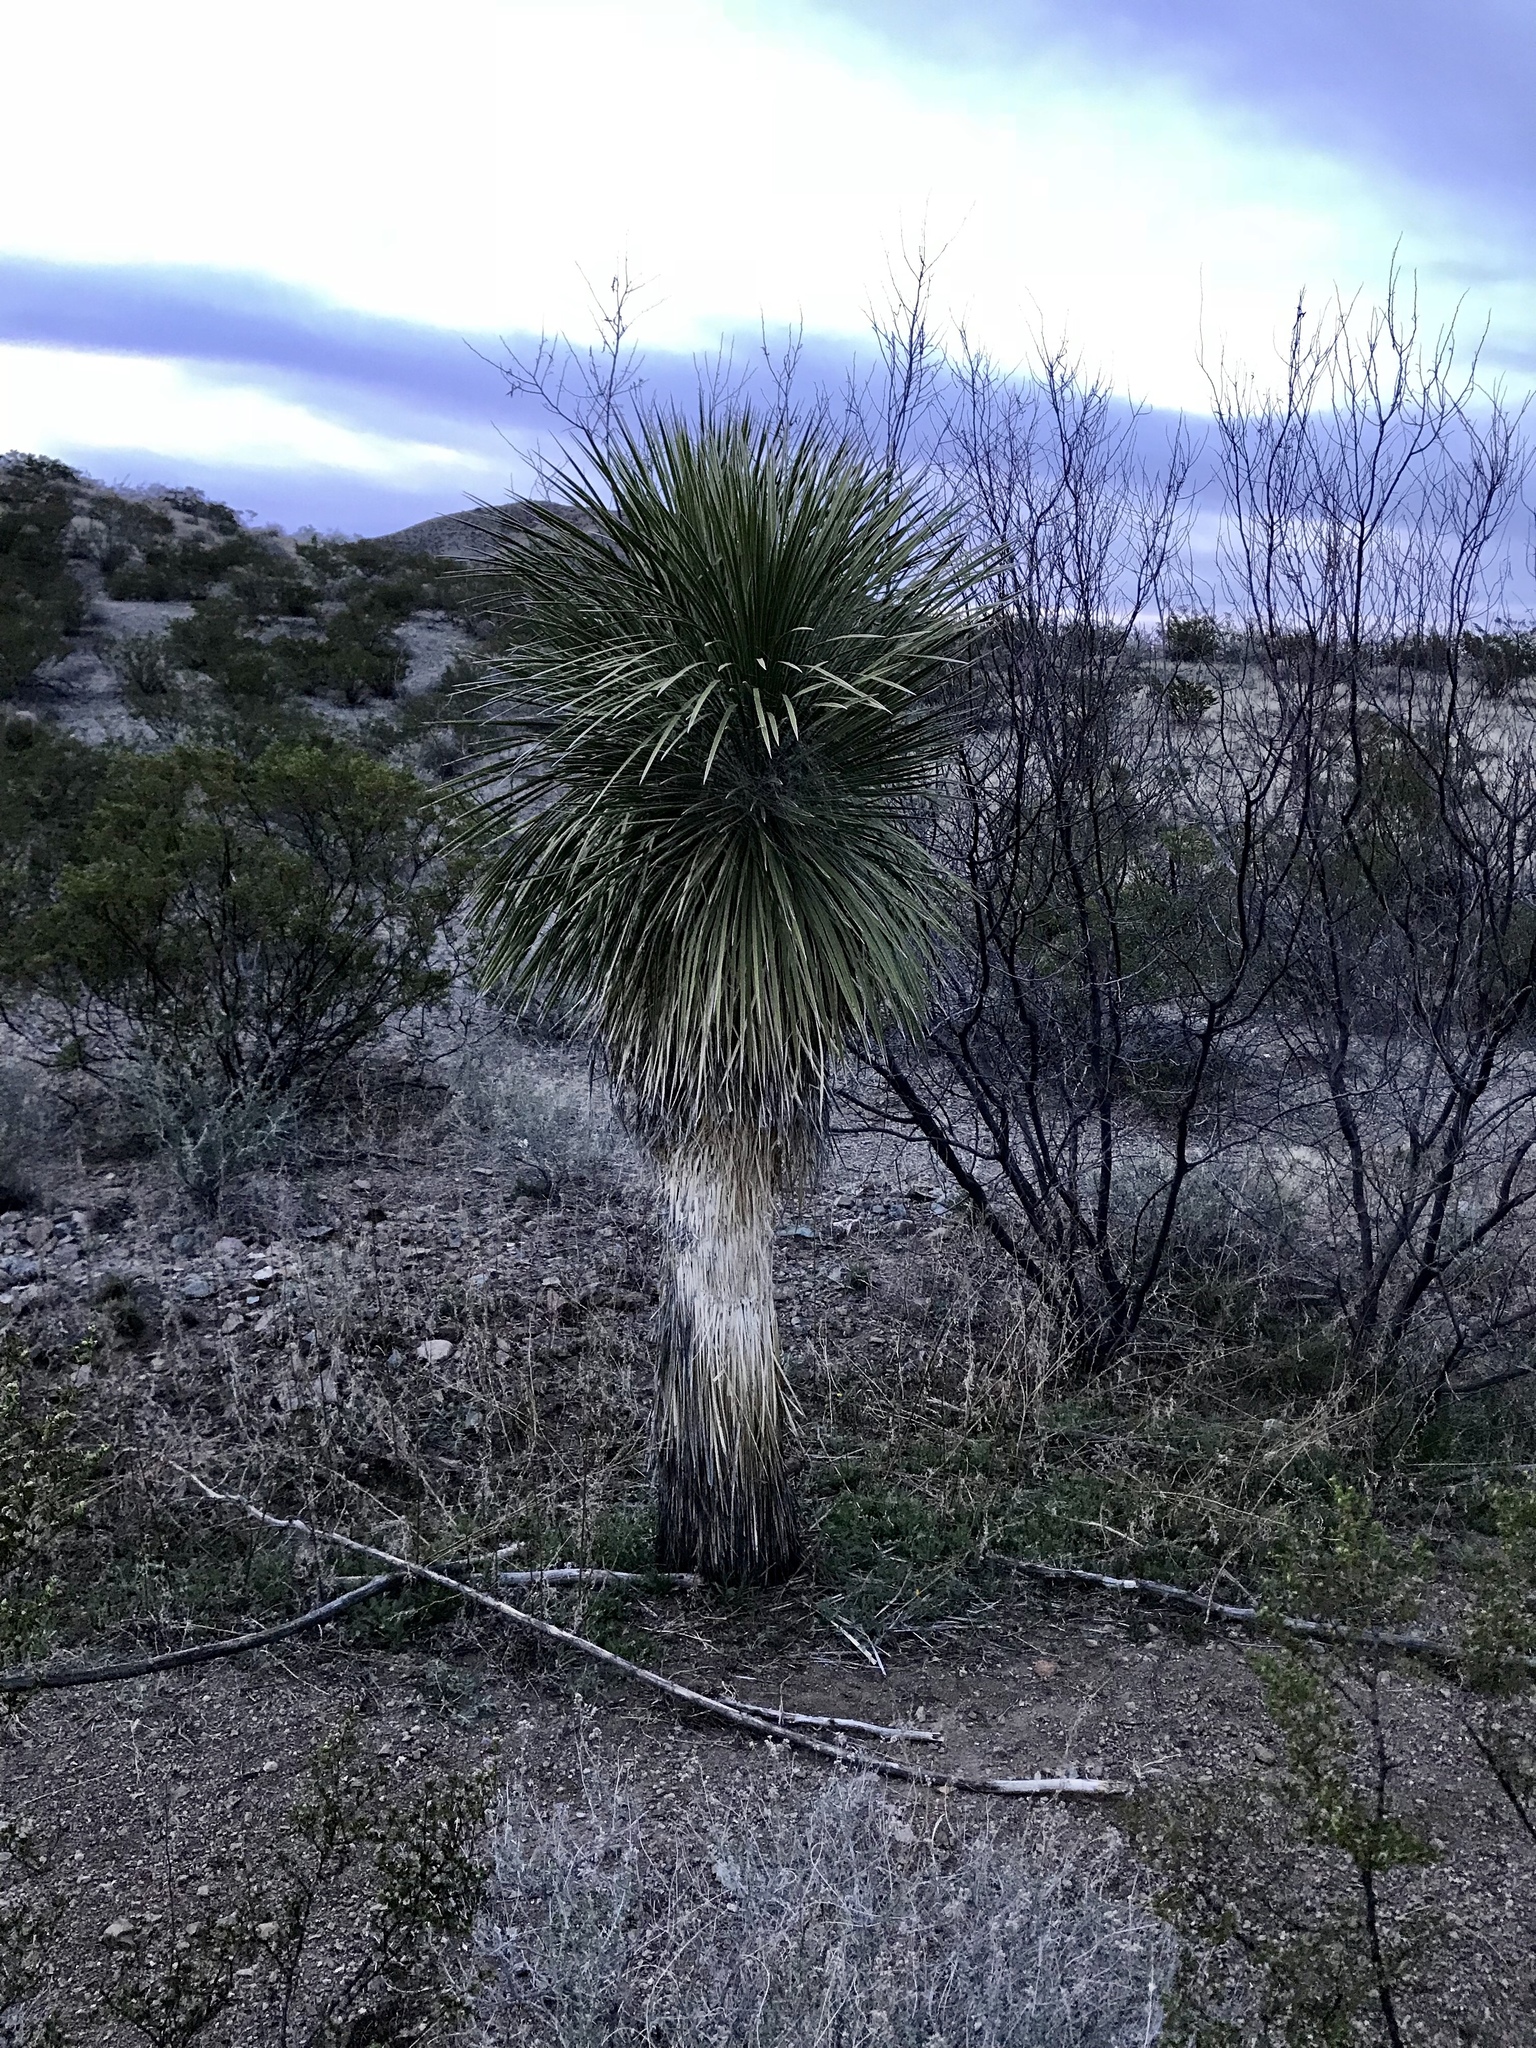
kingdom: Plantae
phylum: Tracheophyta
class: Liliopsida
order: Asparagales
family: Asparagaceae
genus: Yucca
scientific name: Yucca elata
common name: Palmella
